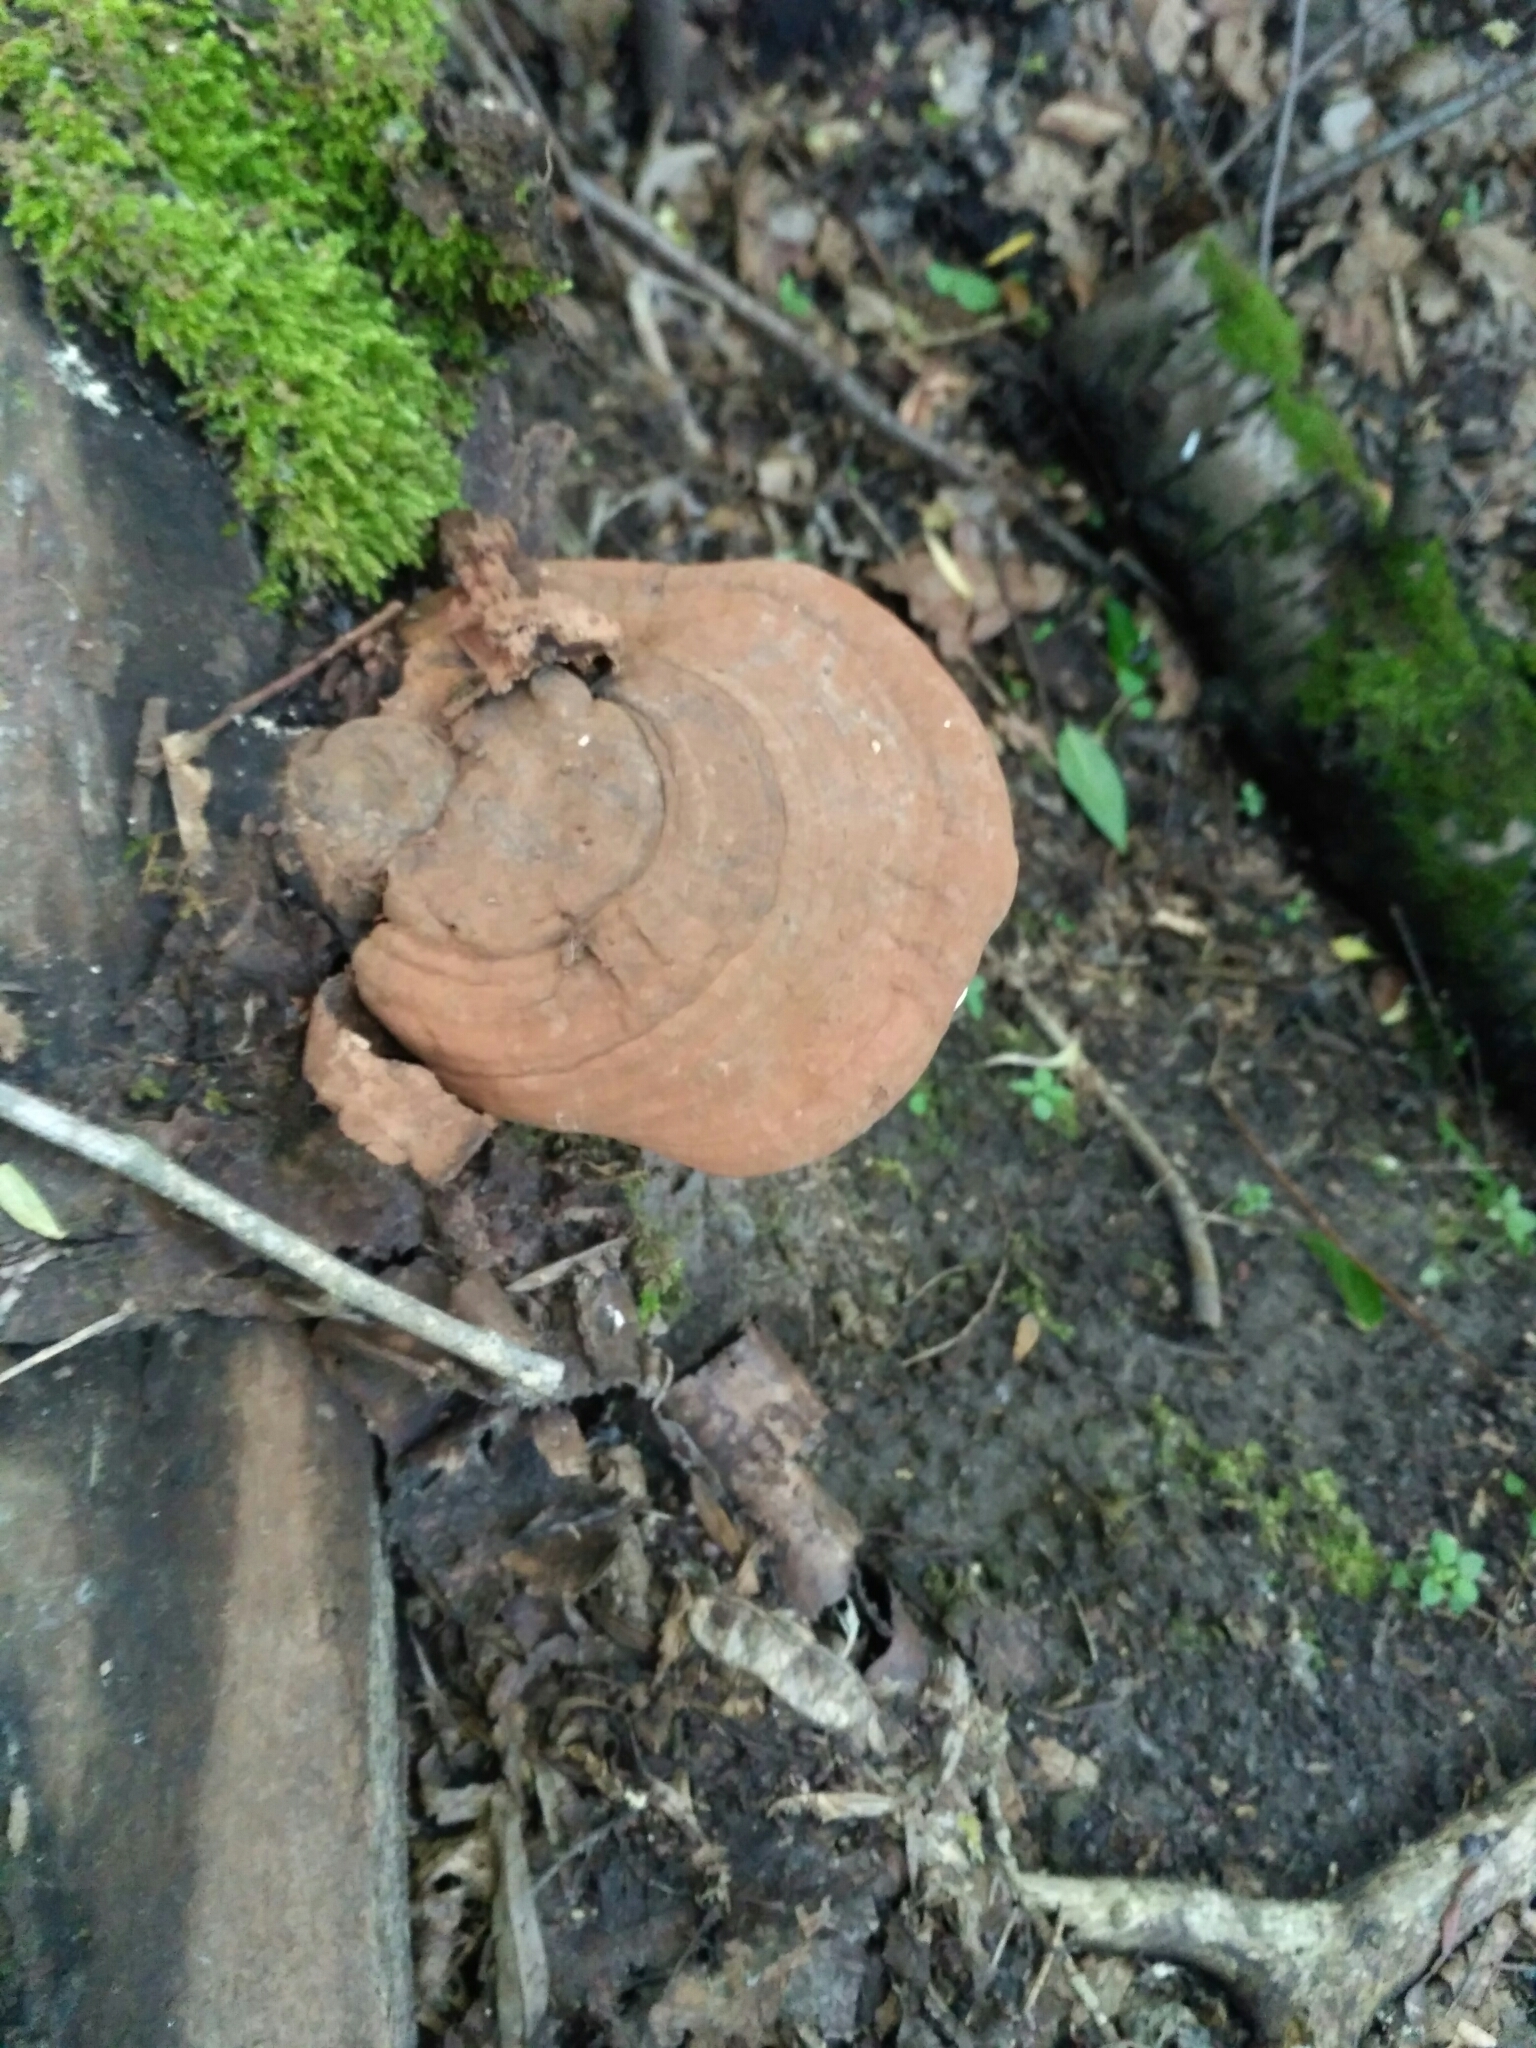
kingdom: Fungi
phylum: Basidiomycota
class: Agaricomycetes
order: Polyporales
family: Polyporaceae
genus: Ganoderma
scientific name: Ganoderma applanatum
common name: Artist's bracket
